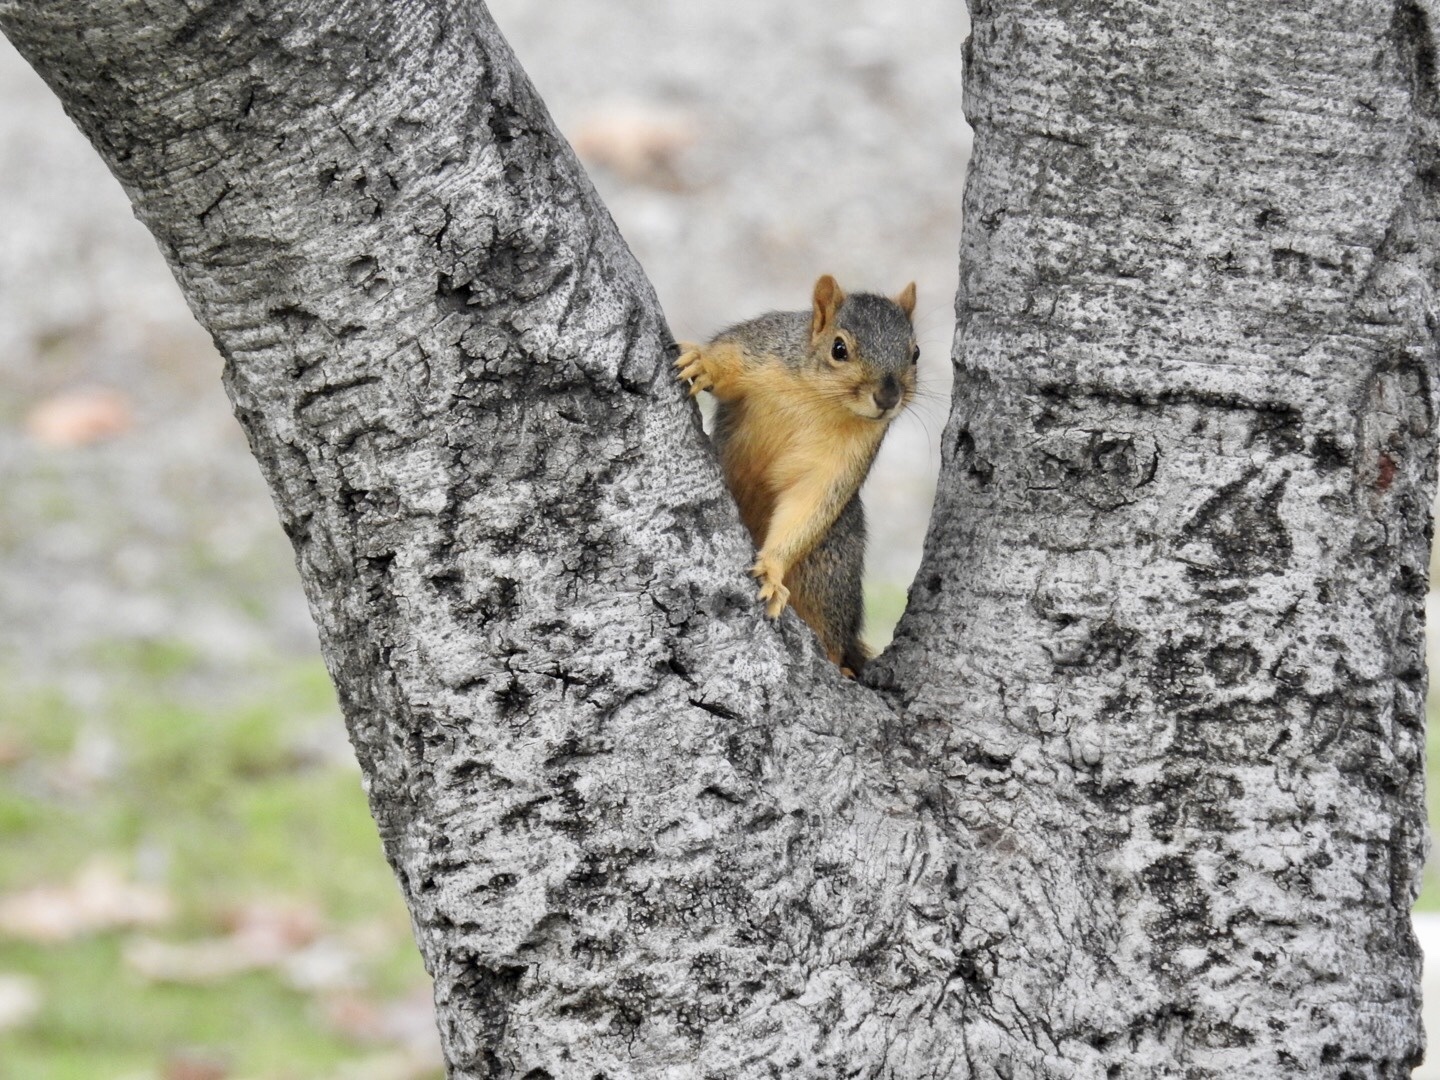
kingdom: Animalia
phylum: Chordata
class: Mammalia
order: Rodentia
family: Sciuridae
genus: Sciurus
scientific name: Sciurus niger
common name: Fox squirrel
